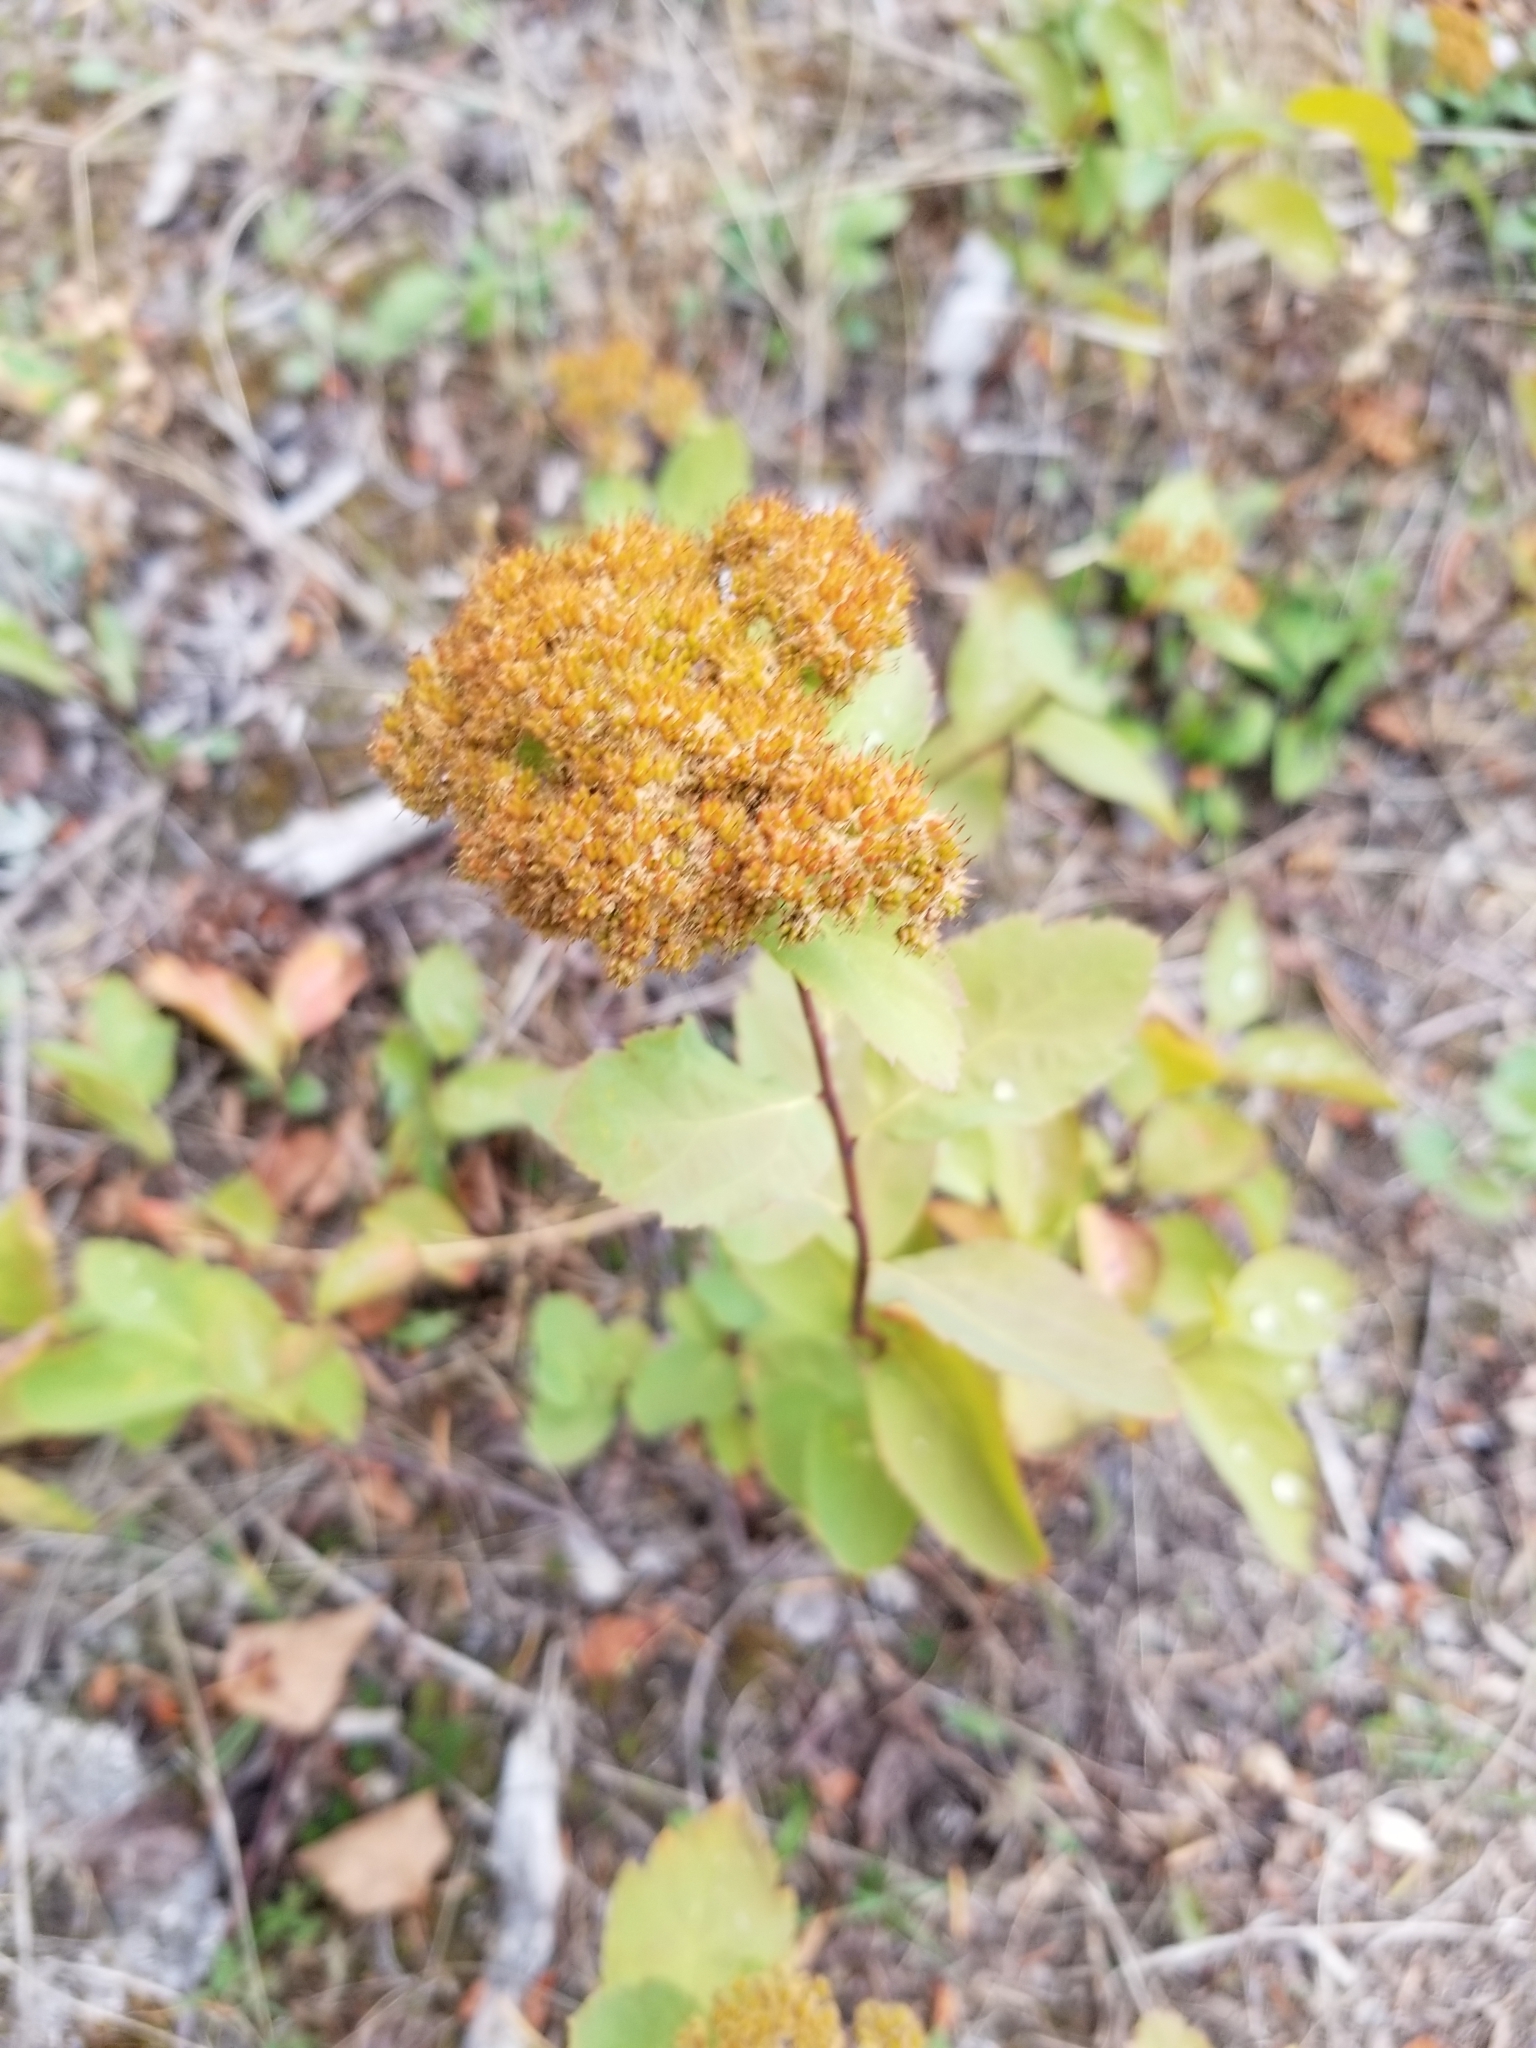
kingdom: Plantae
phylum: Tracheophyta
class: Magnoliopsida
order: Rosales
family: Rosaceae
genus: Spiraea
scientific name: Spiraea lucida
